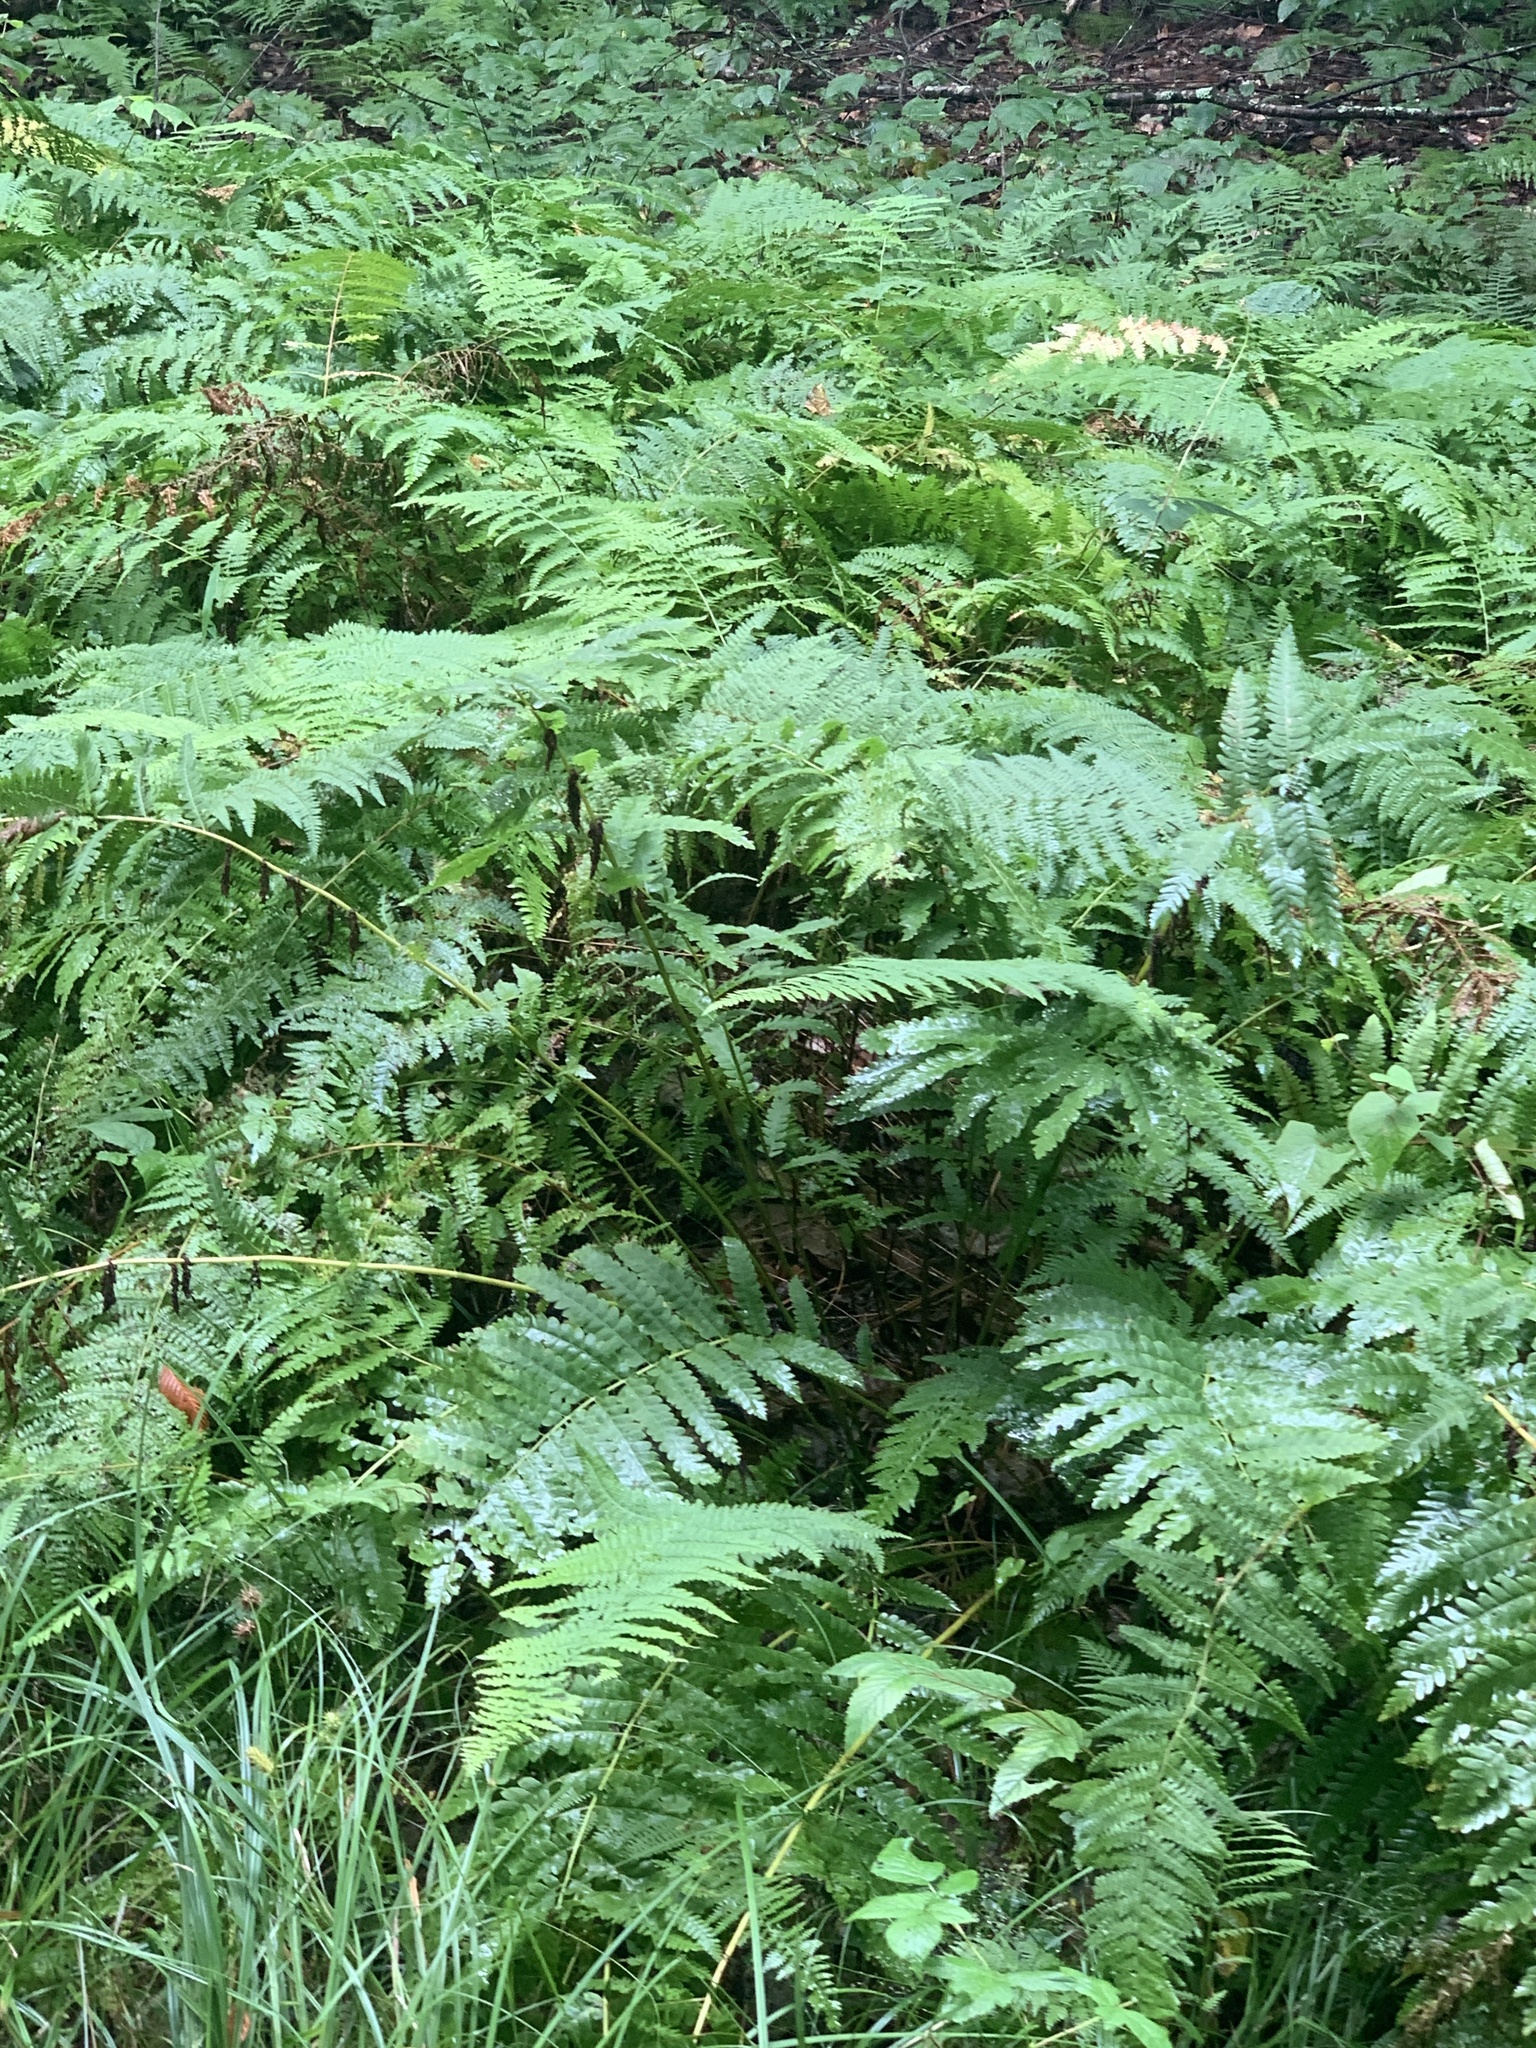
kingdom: Plantae
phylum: Tracheophyta
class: Polypodiopsida
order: Osmundales
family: Osmundaceae
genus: Claytosmunda
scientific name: Claytosmunda claytoniana
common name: Clayton's fern
